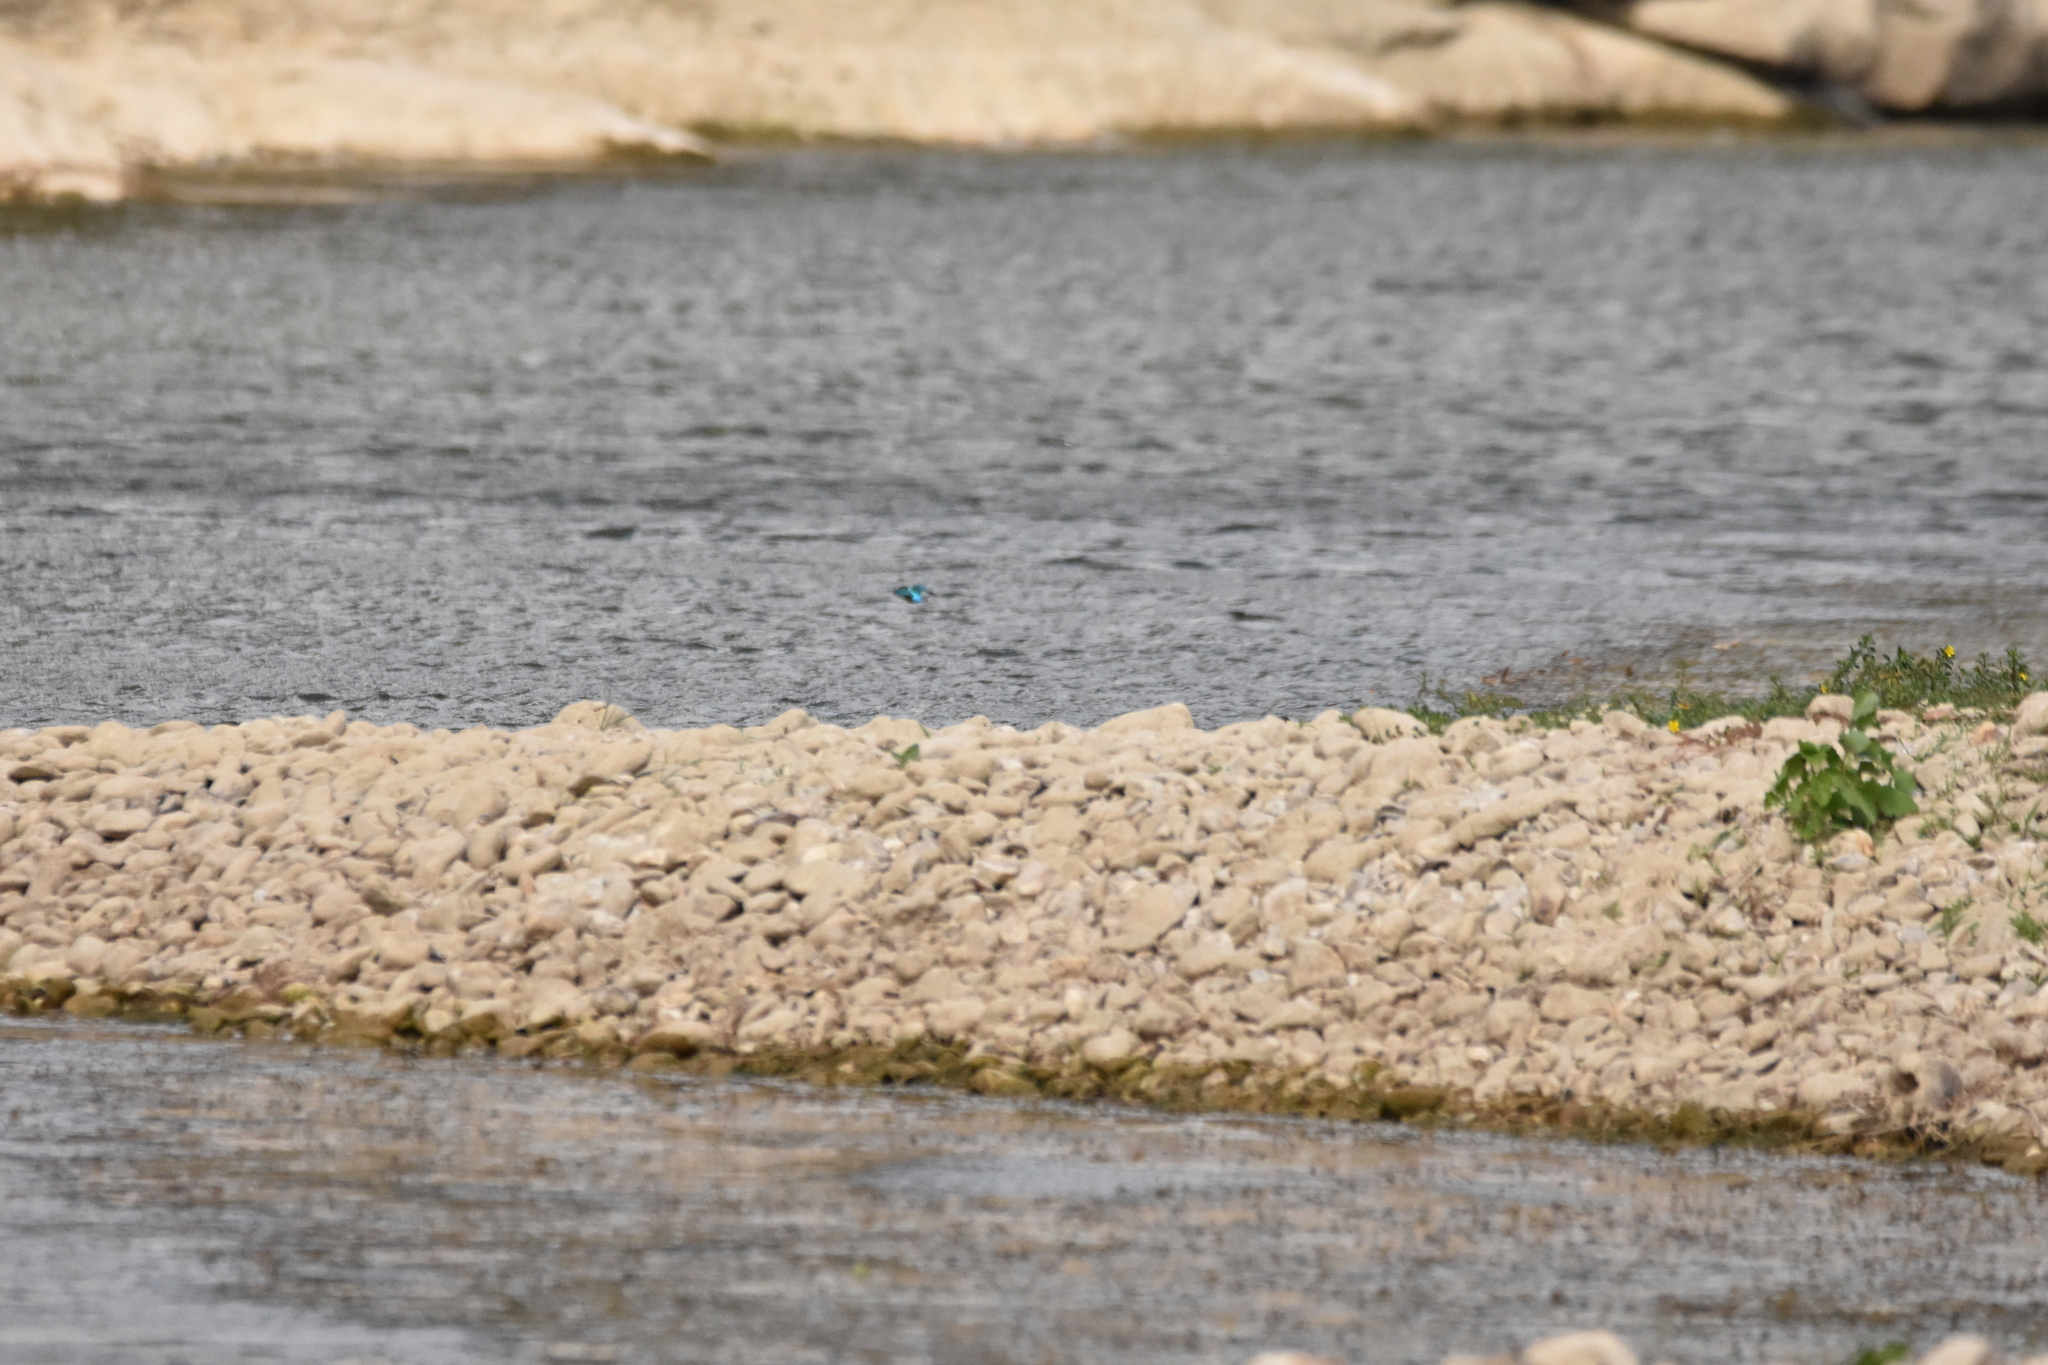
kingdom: Animalia
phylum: Chordata
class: Aves
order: Coraciiformes
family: Alcedinidae
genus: Alcedo
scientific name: Alcedo atthis
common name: Common kingfisher
